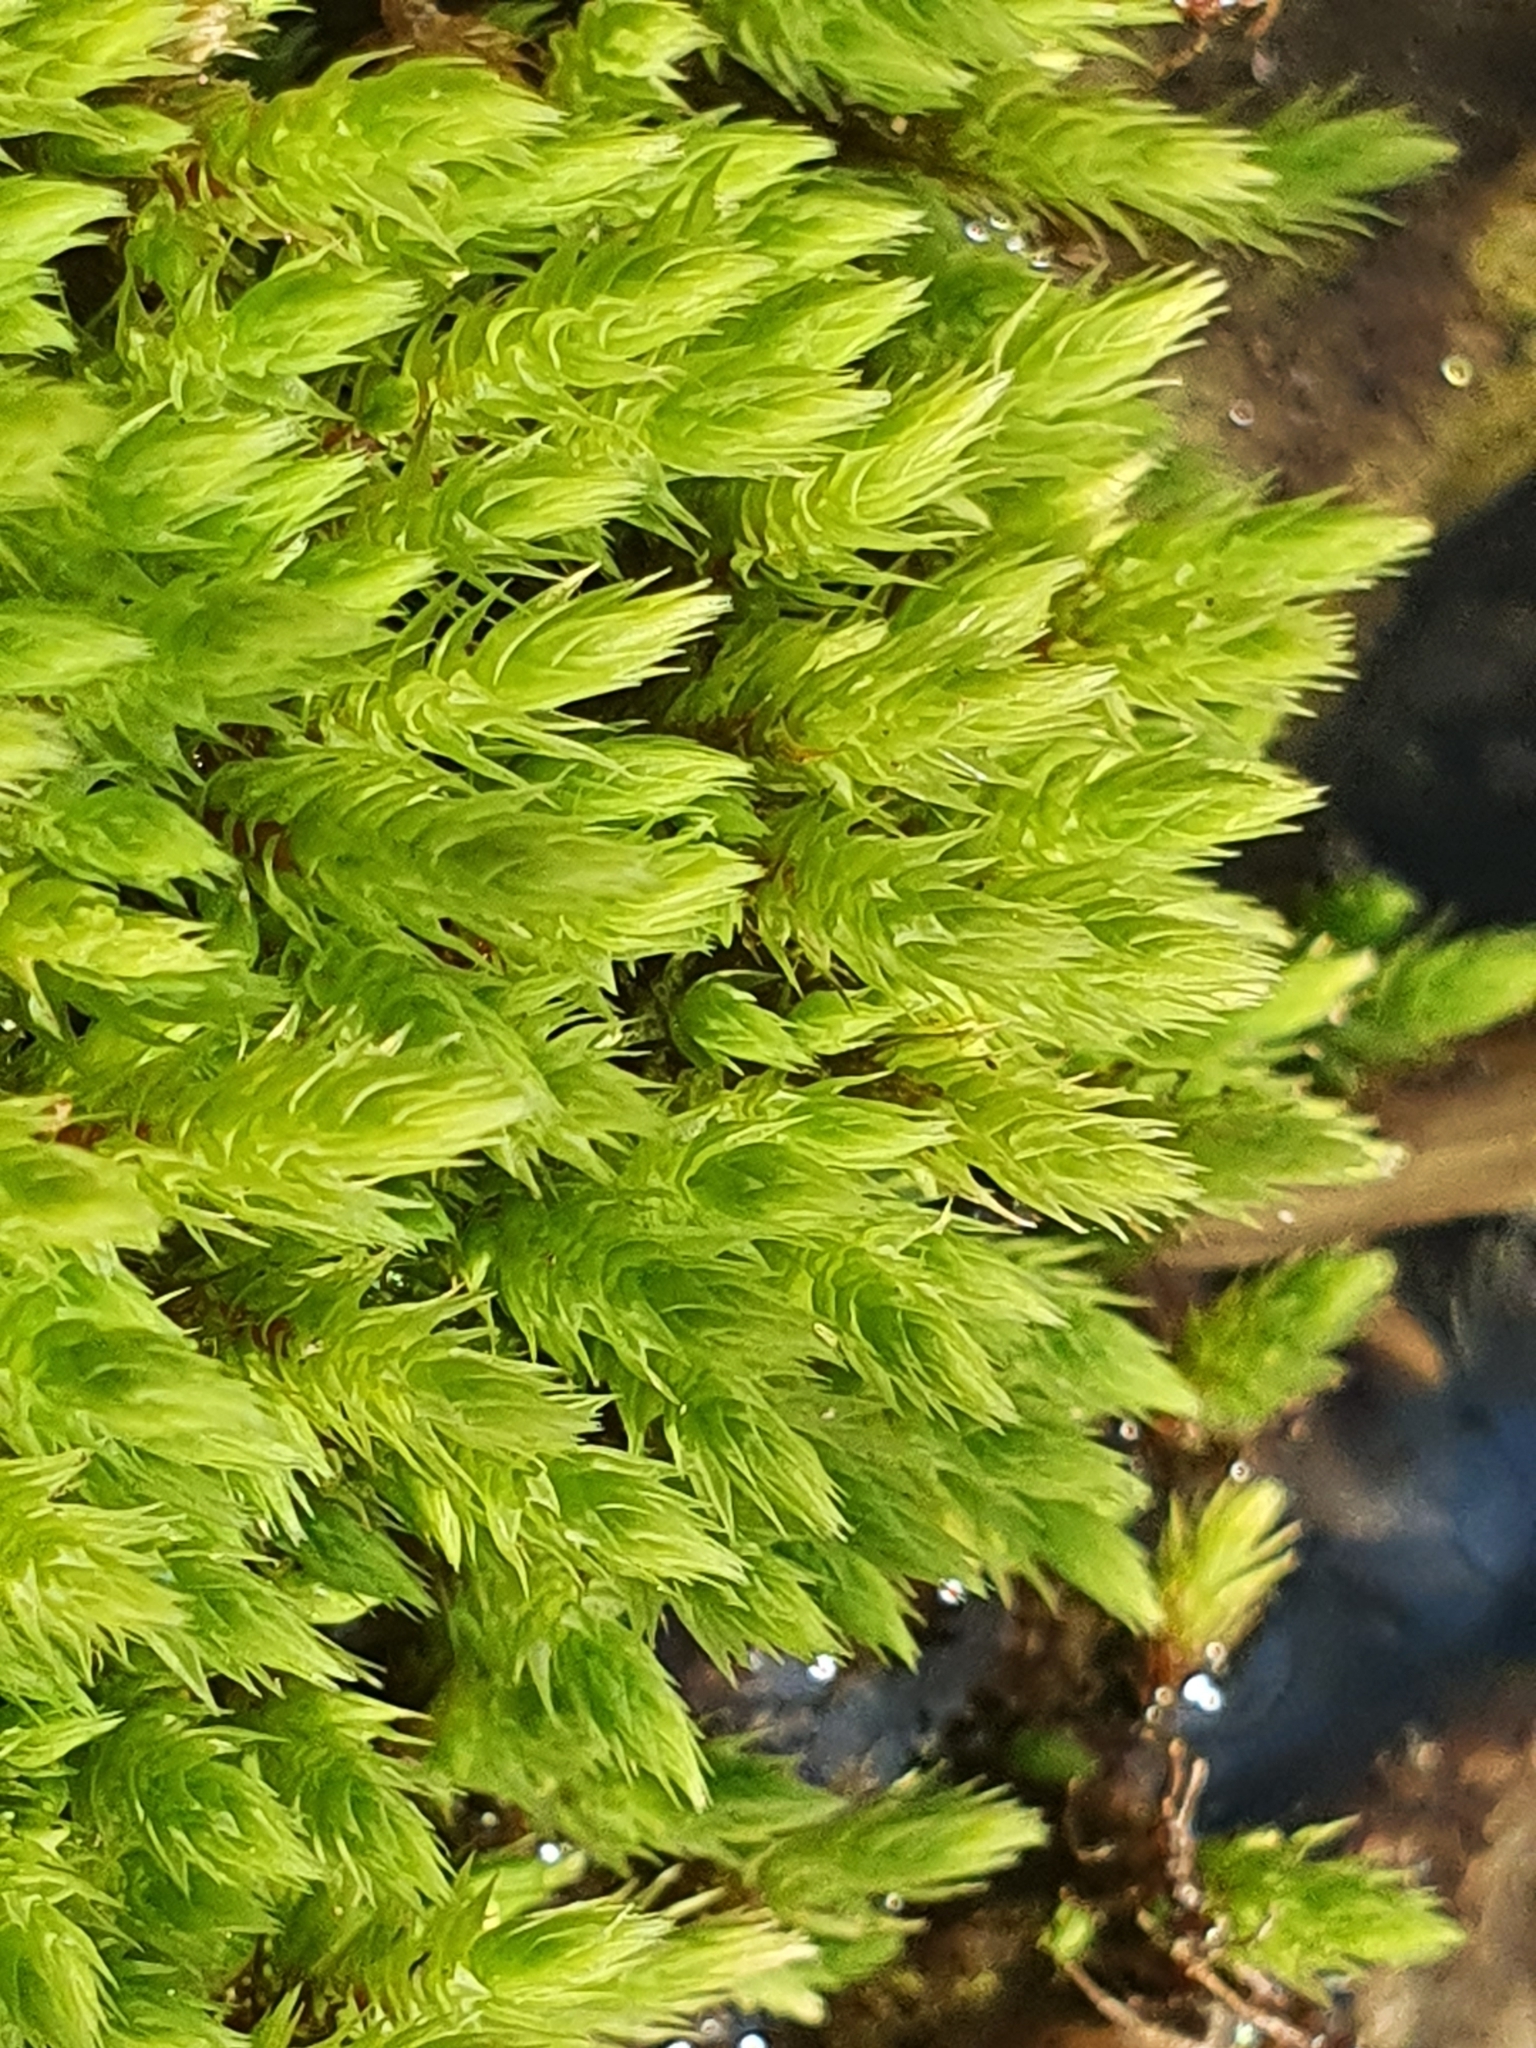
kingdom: Plantae
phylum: Bryophyta
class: Bryopsida
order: Bartramiales
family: Bartramiaceae
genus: Philonotis
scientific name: Philonotis calcarea
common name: Thick-nerved apple-moss
